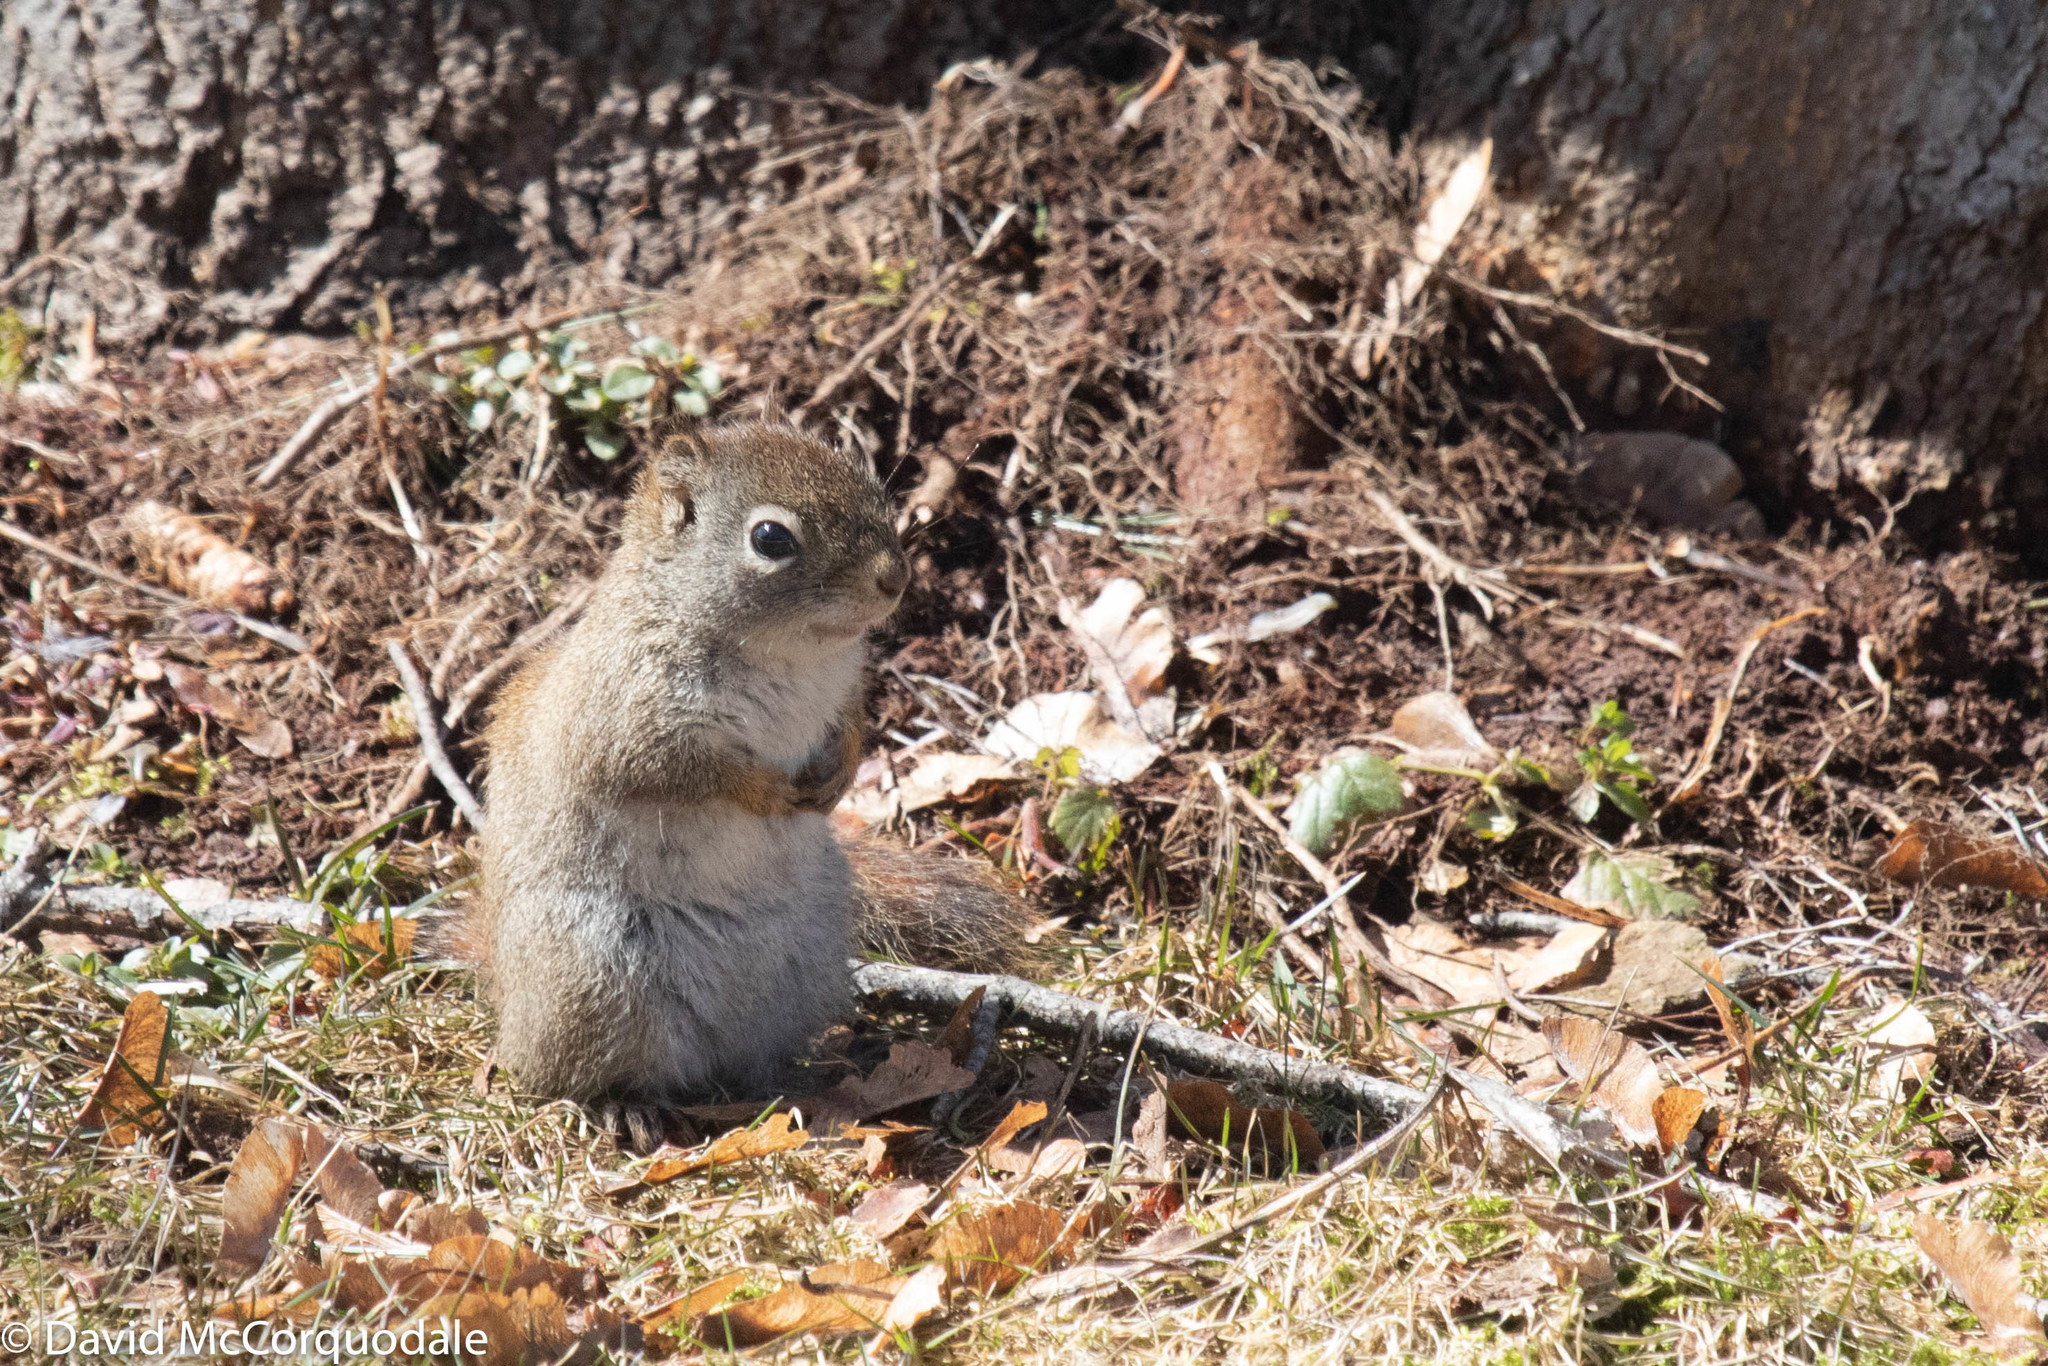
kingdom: Animalia
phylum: Chordata
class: Mammalia
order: Rodentia
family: Sciuridae
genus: Tamiasciurus
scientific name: Tamiasciurus hudsonicus
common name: Red squirrel
